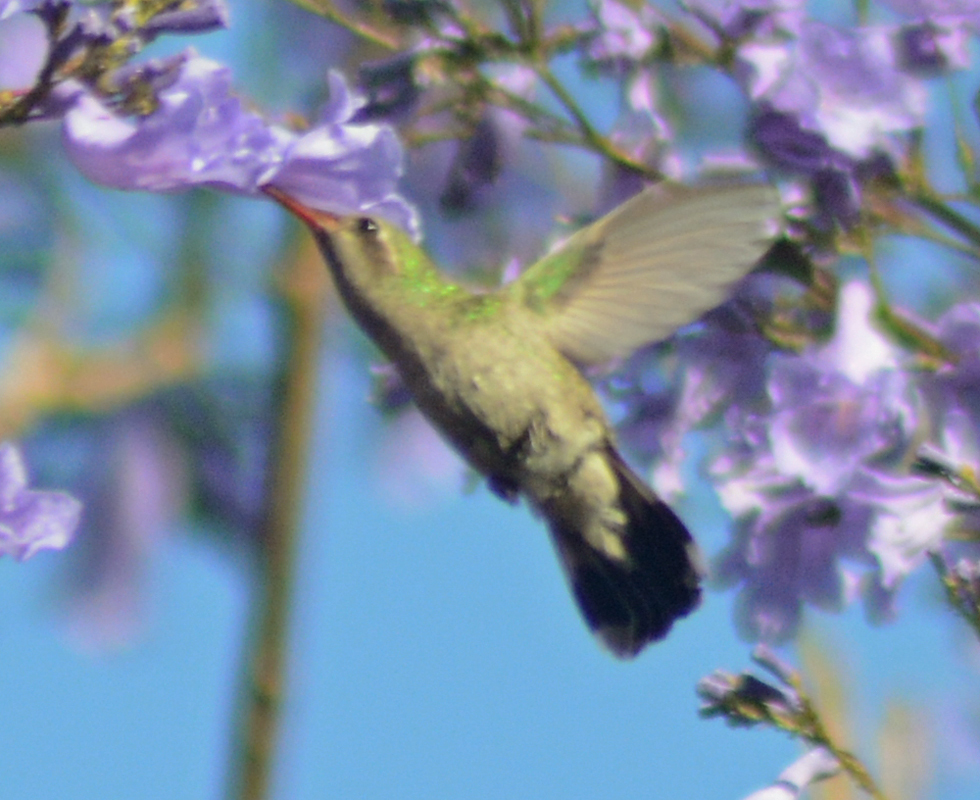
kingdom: Animalia
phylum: Chordata
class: Aves
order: Apodiformes
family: Trochilidae
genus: Cynanthus
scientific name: Cynanthus latirostris
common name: Broad-billed hummingbird
